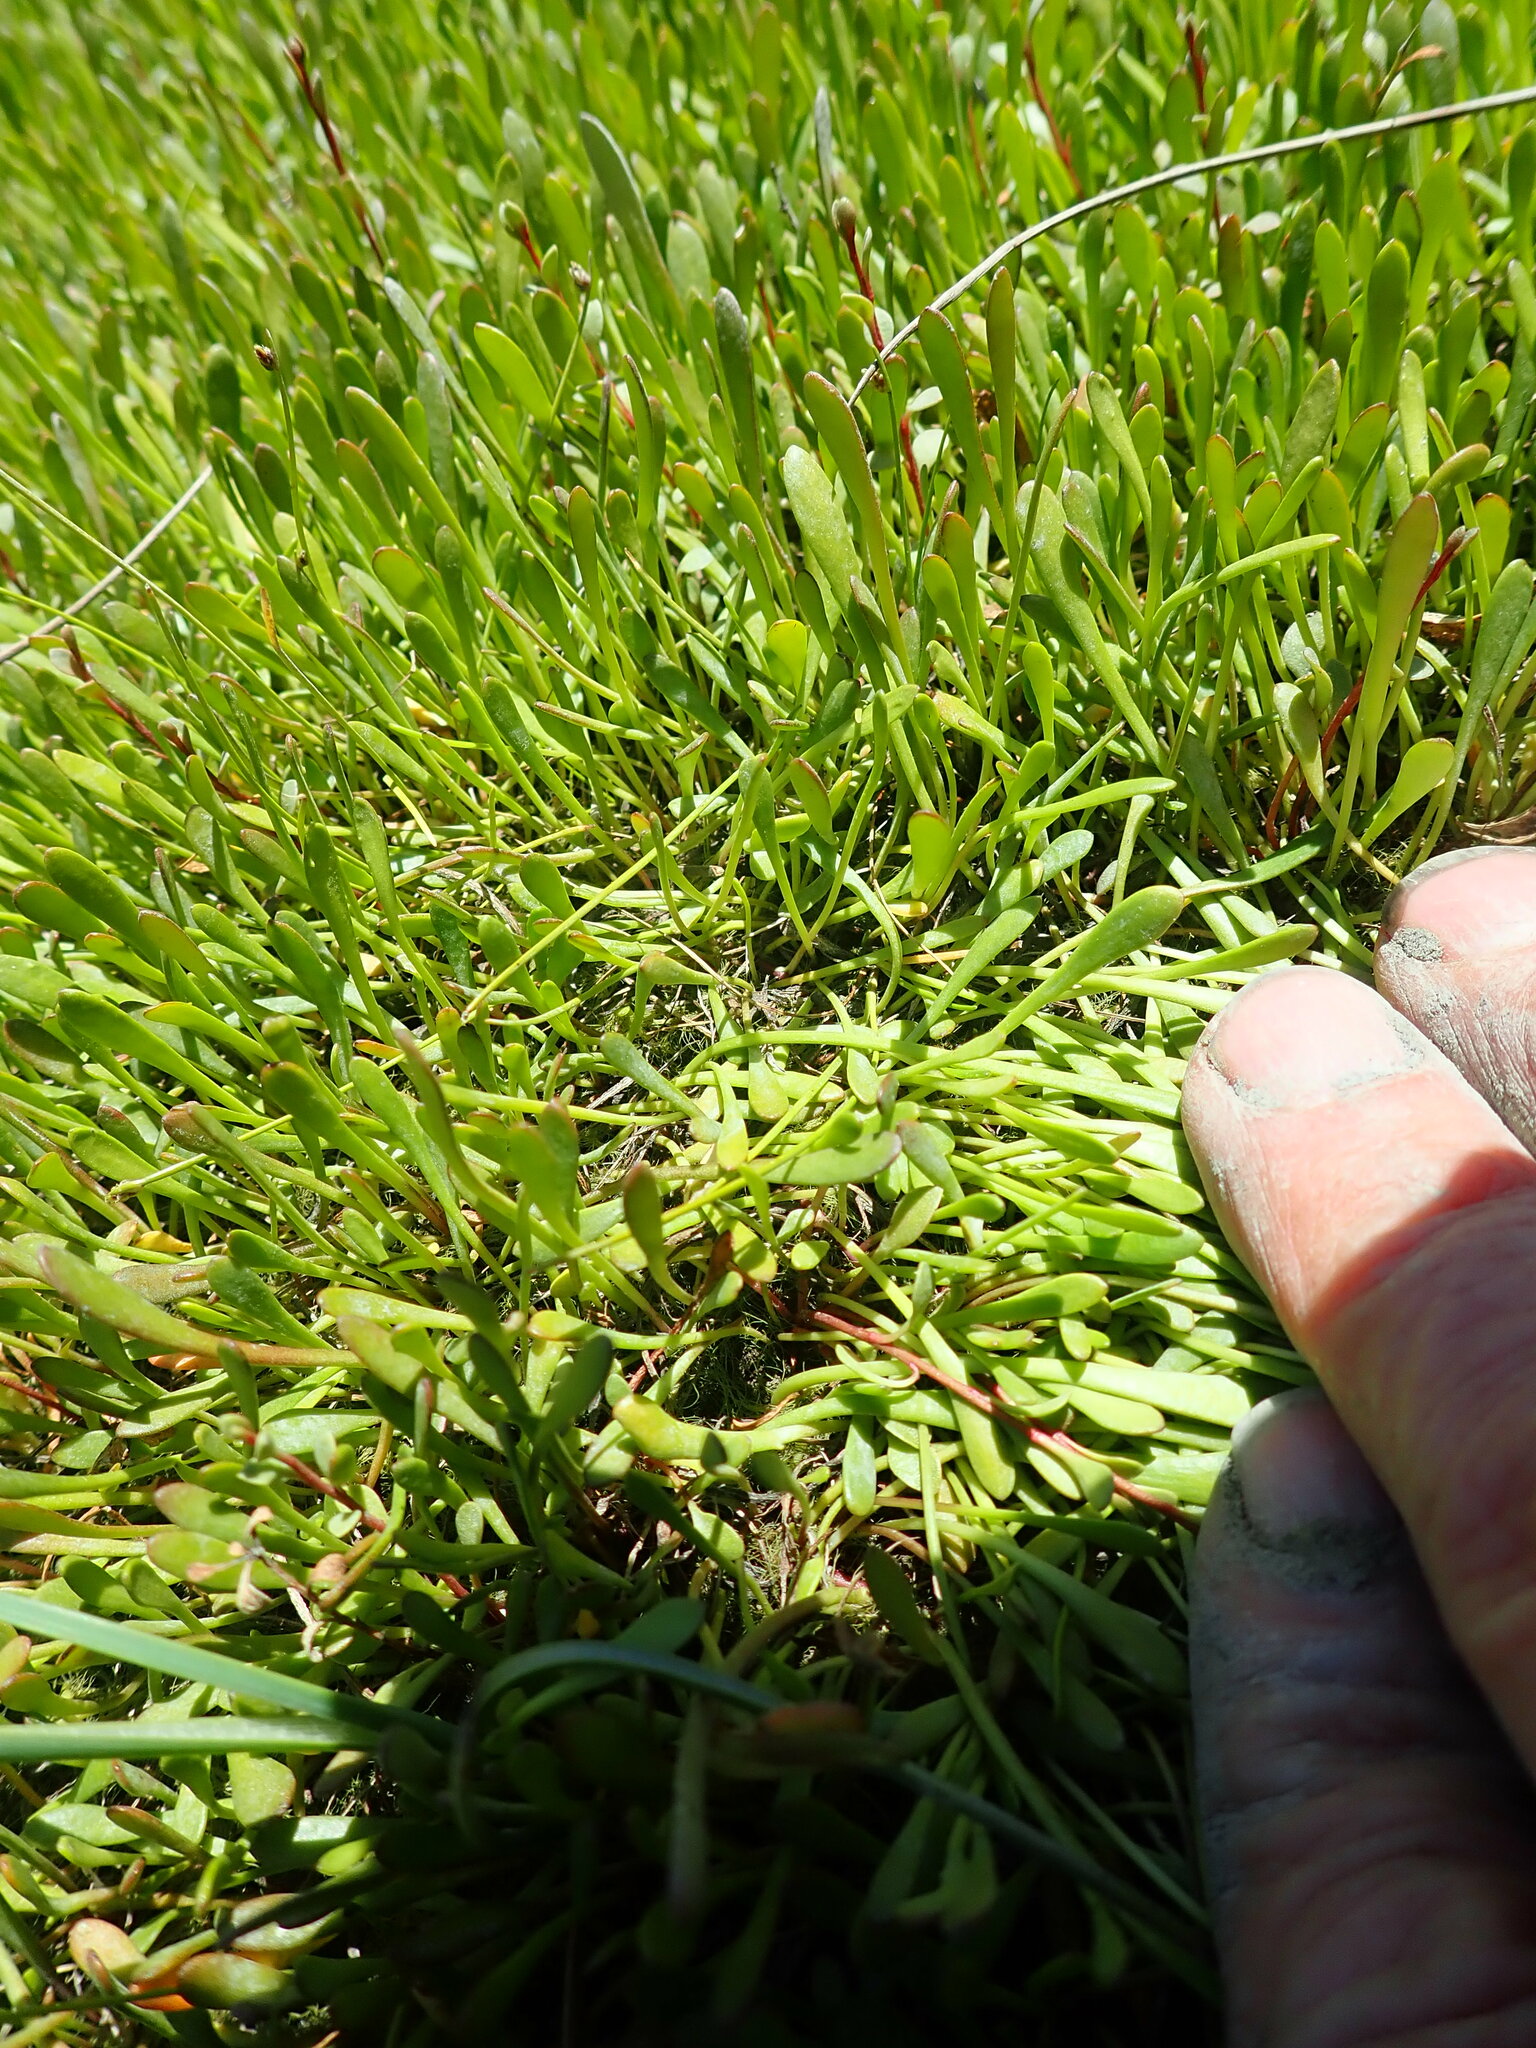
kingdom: Plantae
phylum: Tracheophyta
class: Magnoliopsida
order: Asterales
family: Goodeniaceae
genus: Goodenia
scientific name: Goodenia radicans
